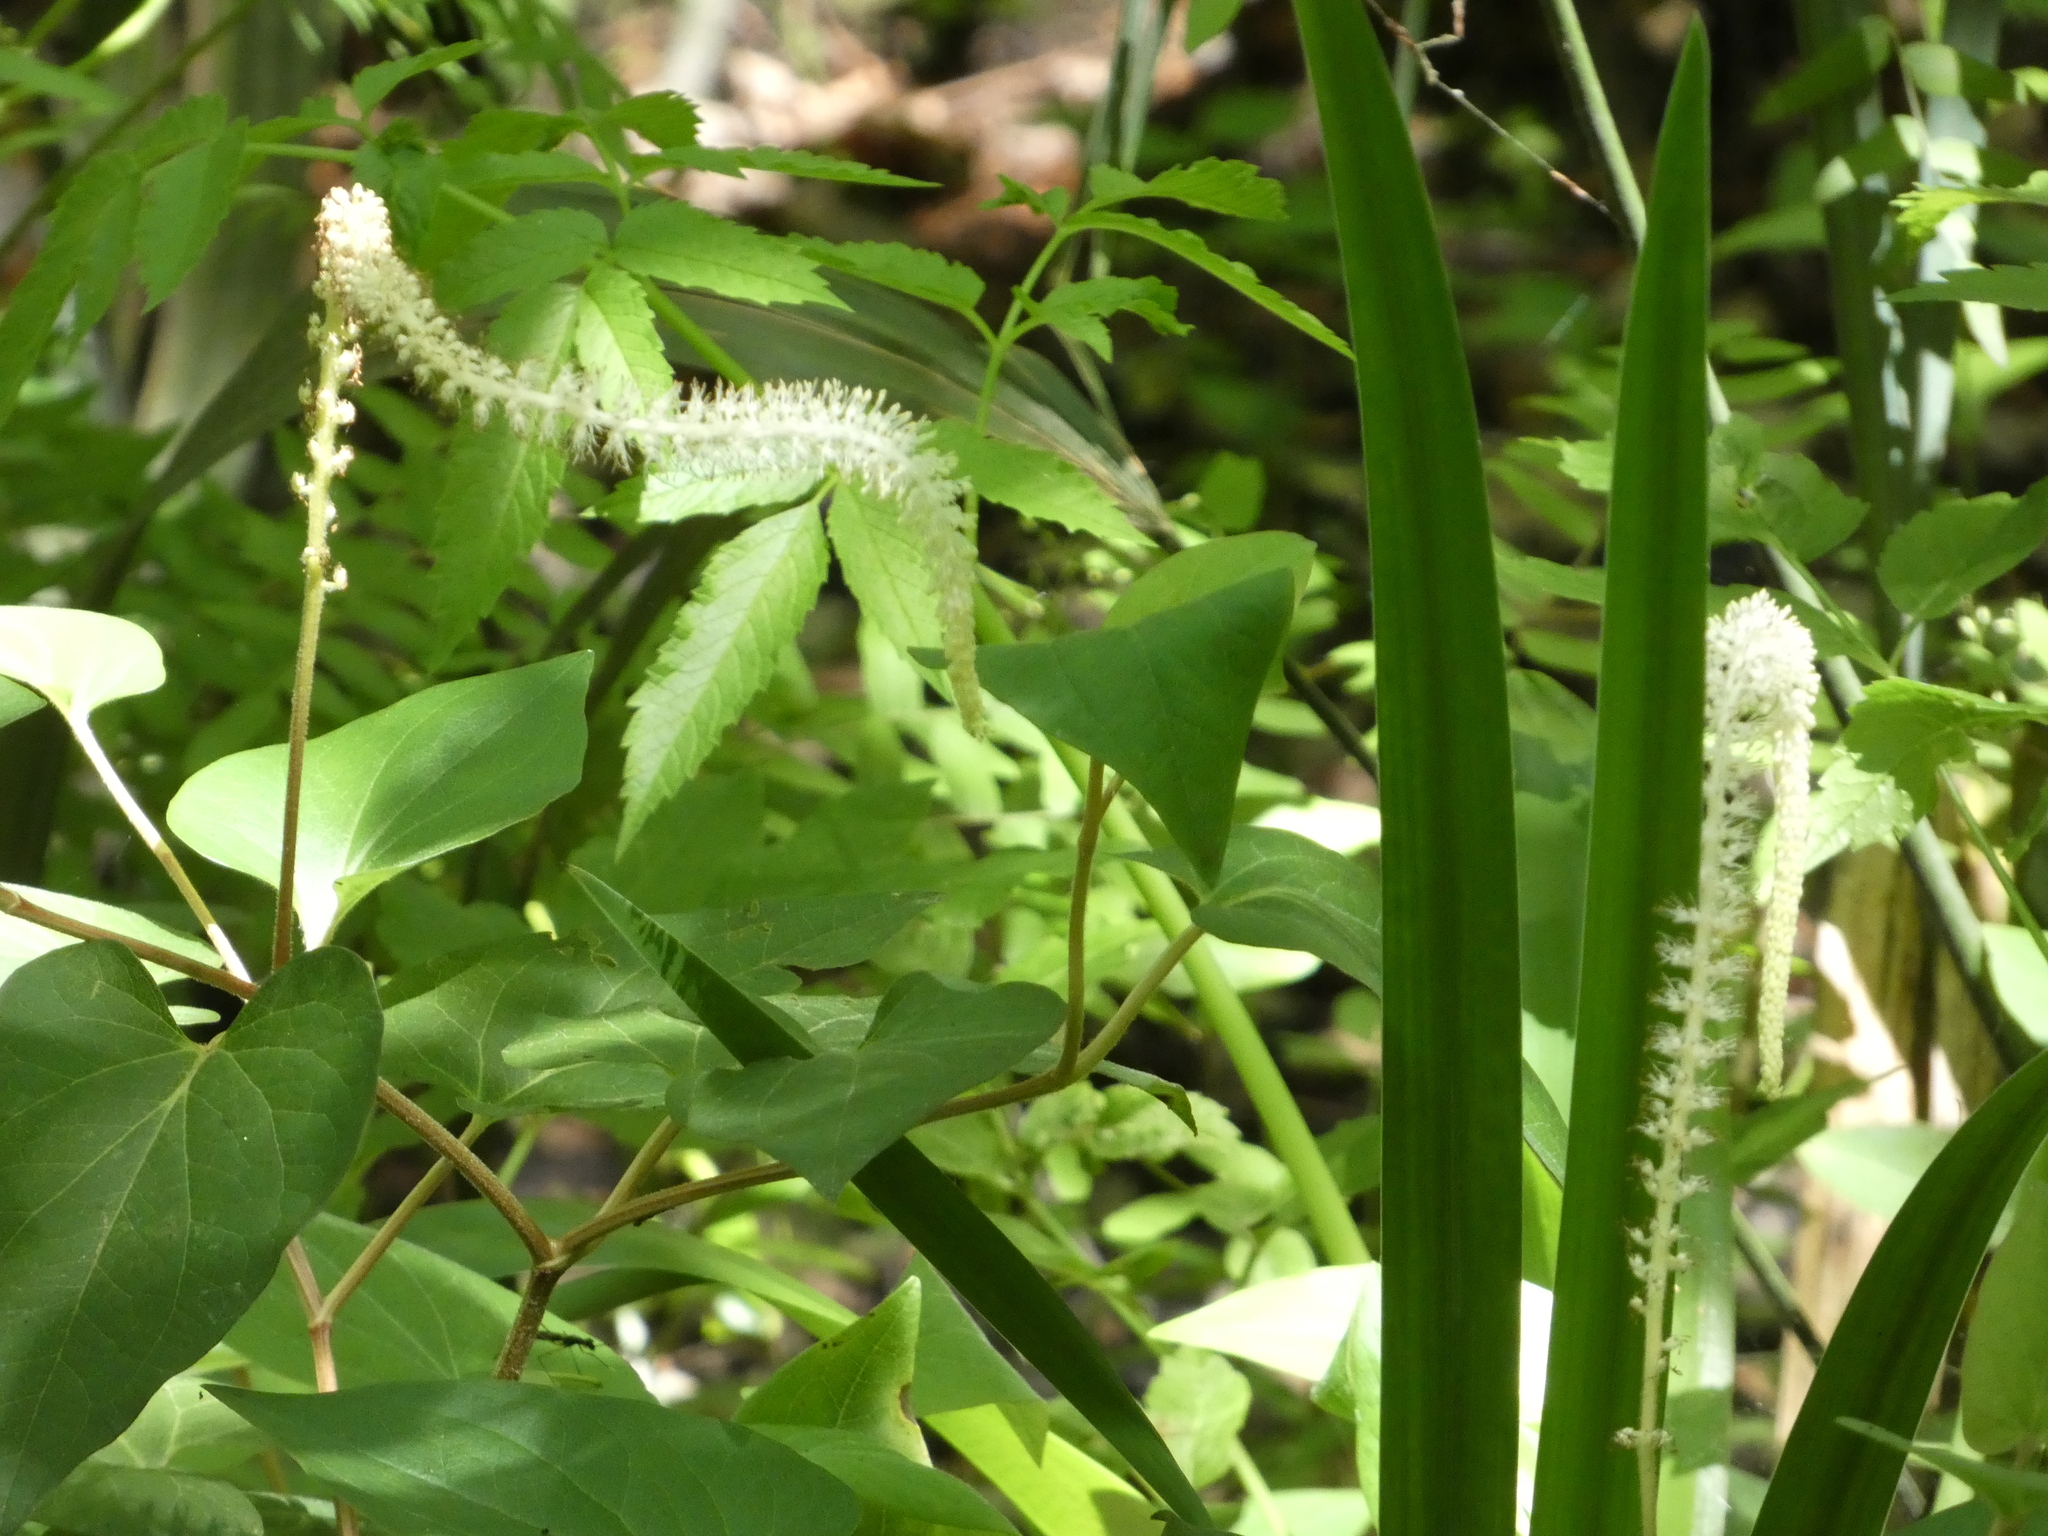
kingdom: Plantae
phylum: Tracheophyta
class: Magnoliopsida
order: Piperales
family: Saururaceae
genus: Saururus
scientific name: Saururus cernuus
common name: Lizard's-tail
